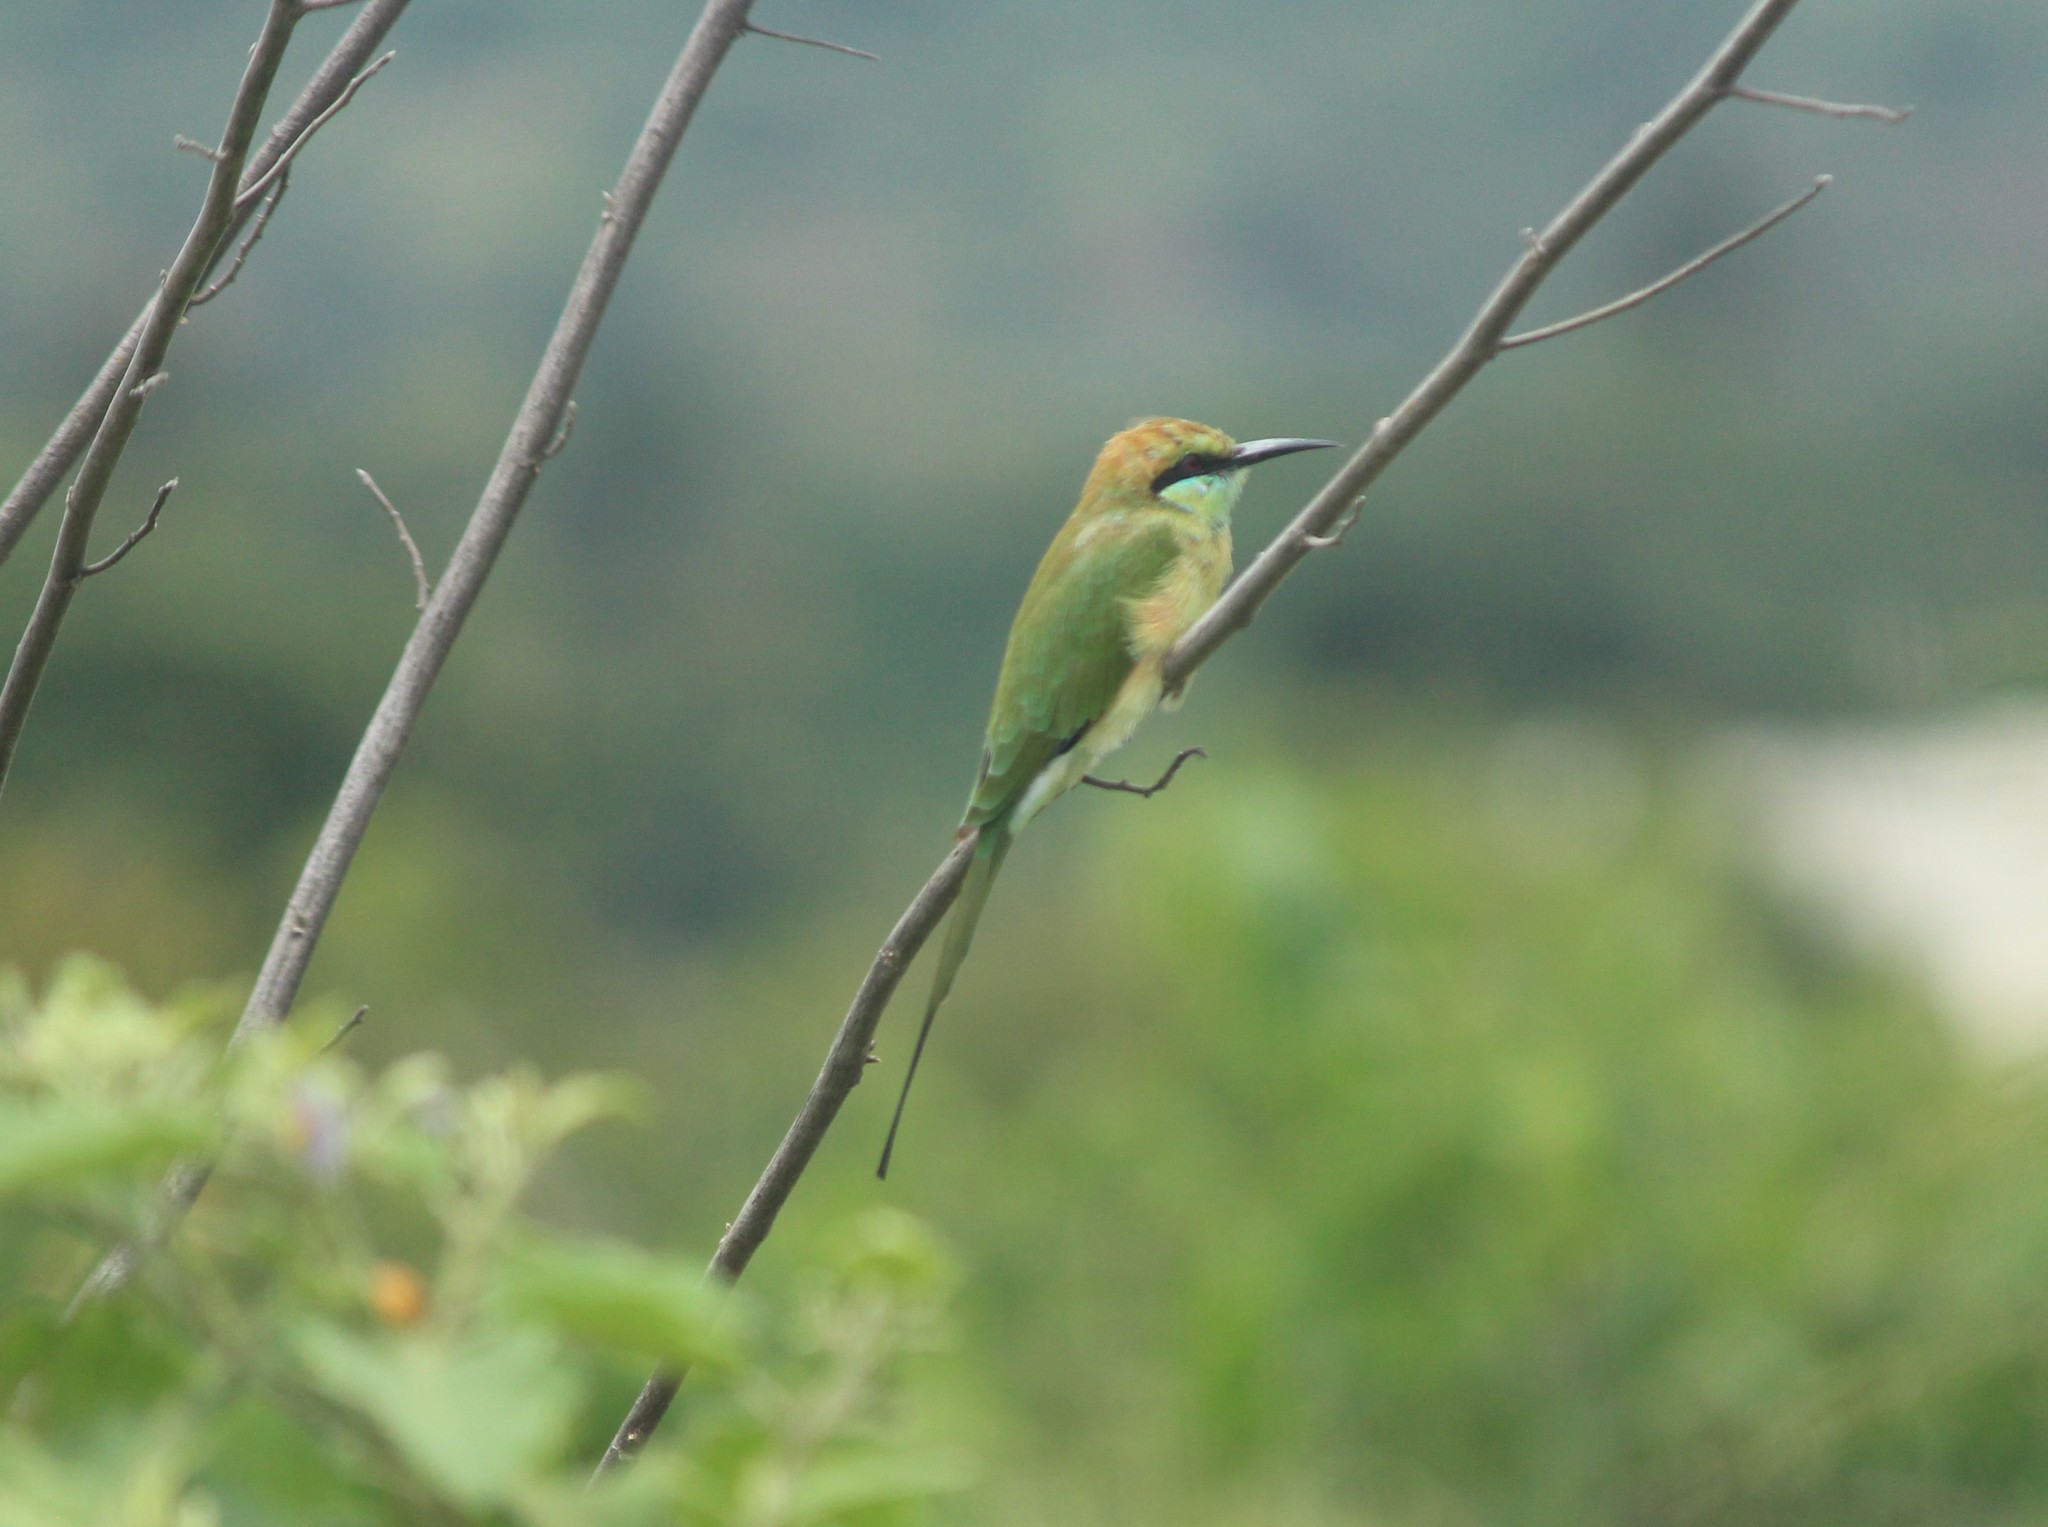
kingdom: Animalia
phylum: Chordata
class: Aves
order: Coraciiformes
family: Meropidae
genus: Merops
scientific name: Merops orientalis
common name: Green bee-eater
